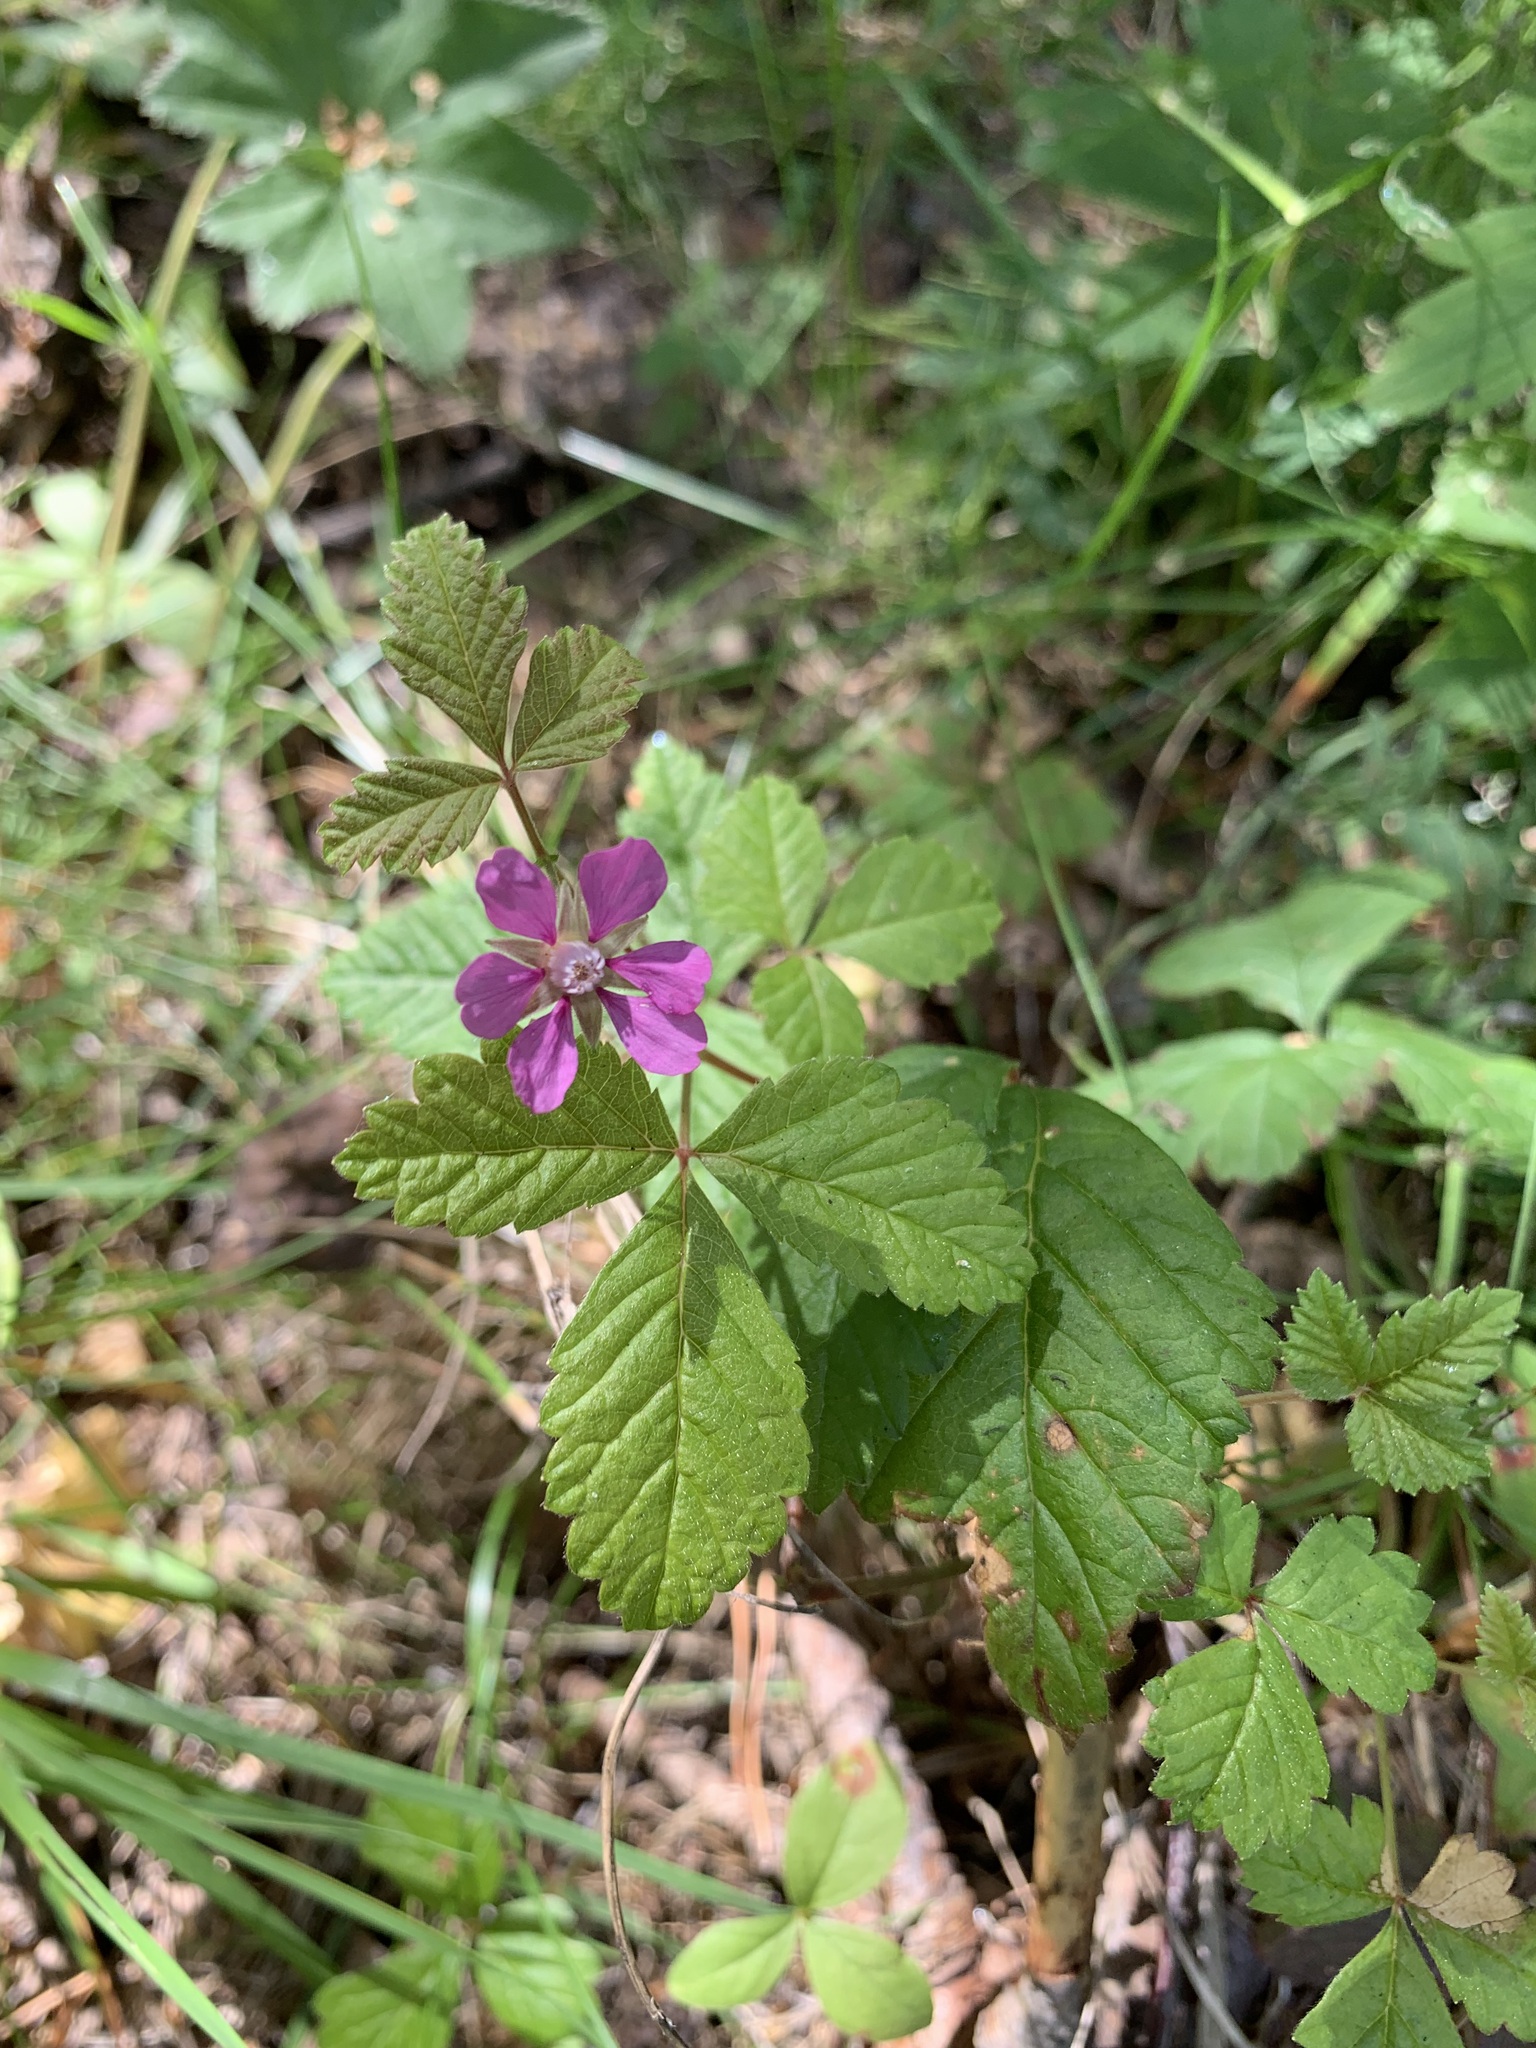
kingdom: Plantae
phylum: Tracheophyta
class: Magnoliopsida
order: Rosales
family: Rosaceae
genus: Rubus
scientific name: Rubus arcticus
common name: Arctic bramble
